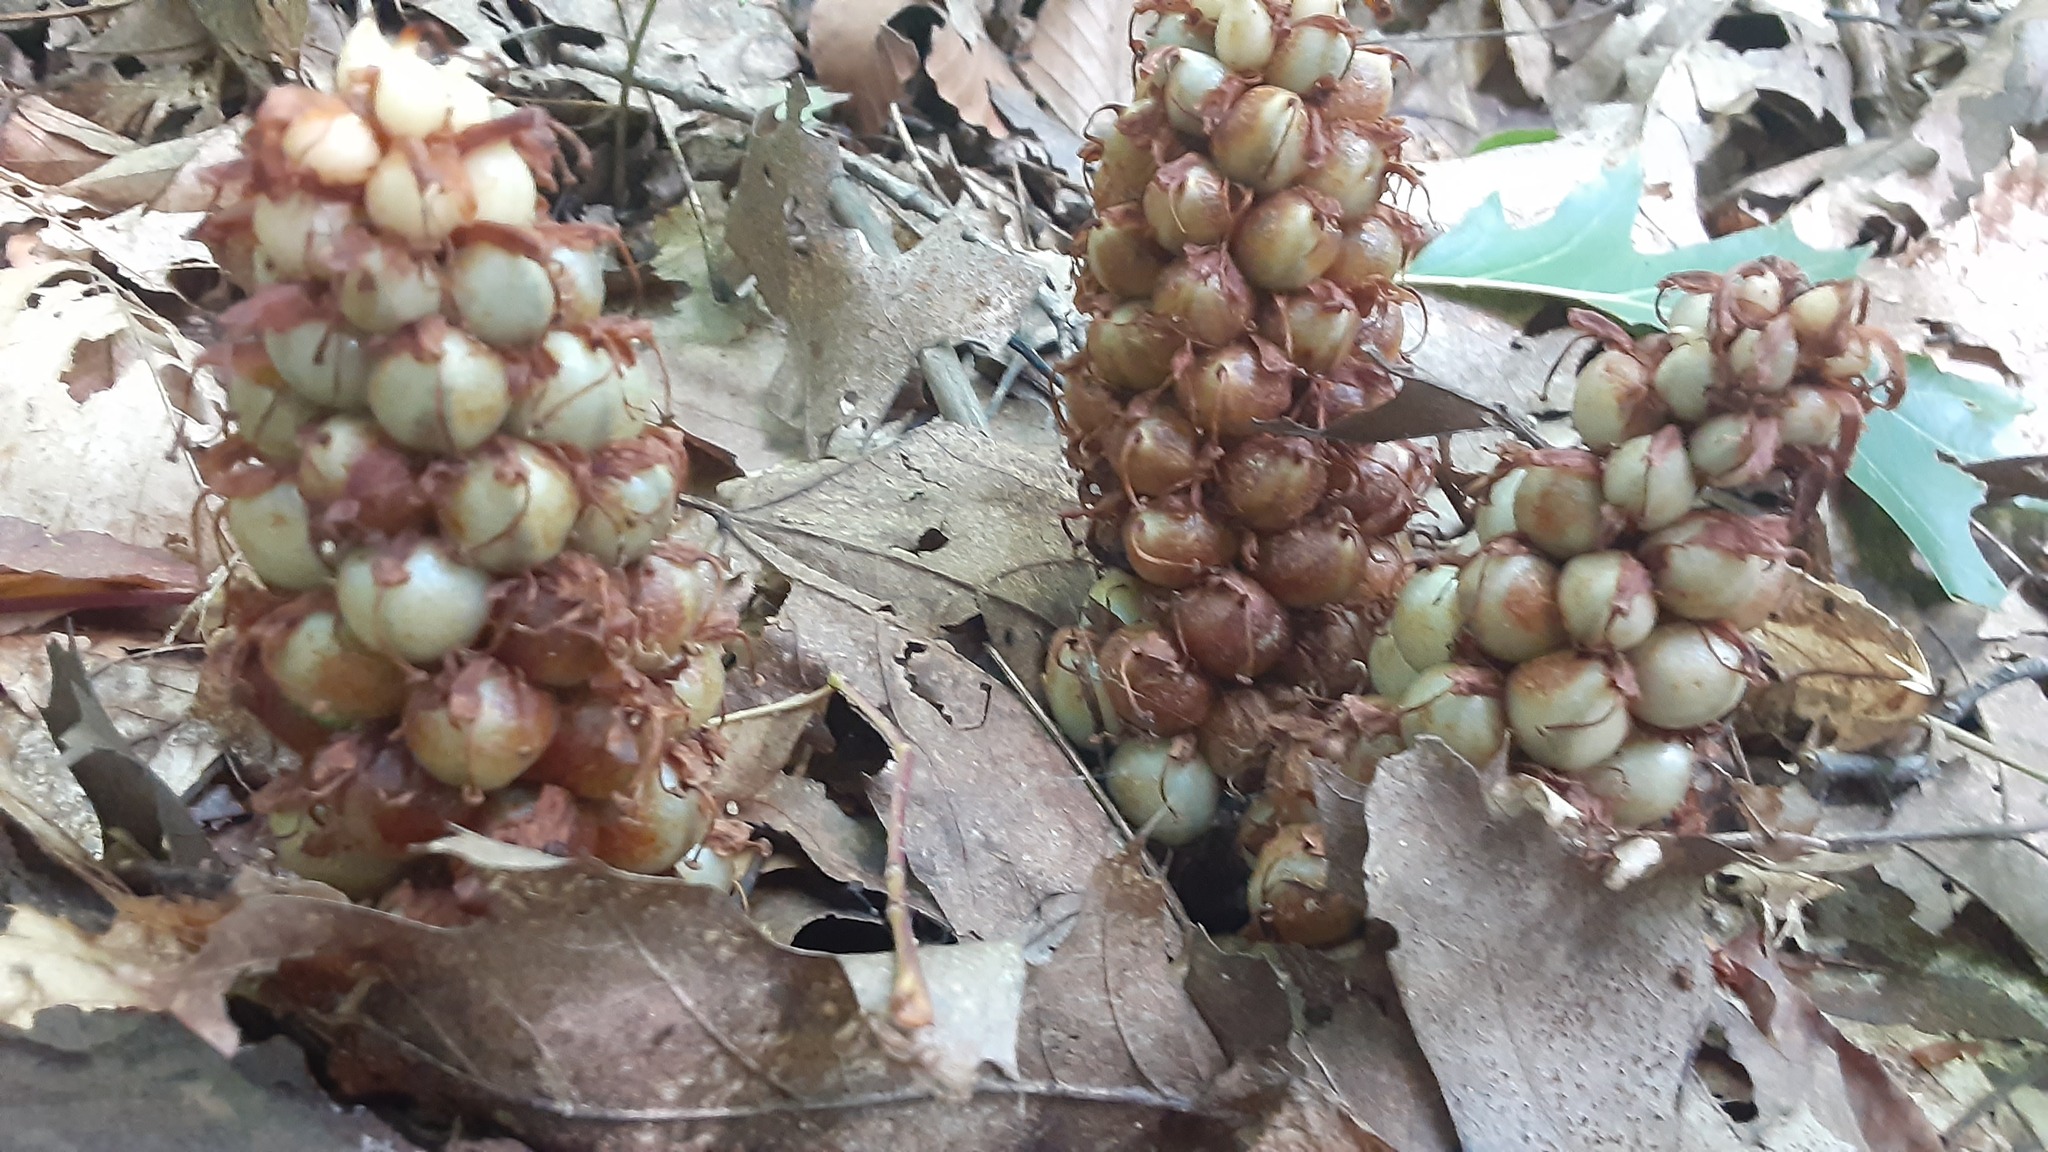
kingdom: Plantae
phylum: Tracheophyta
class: Magnoliopsida
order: Lamiales
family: Orobanchaceae
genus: Conopholis
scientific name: Conopholis americana
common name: American cancer-root
